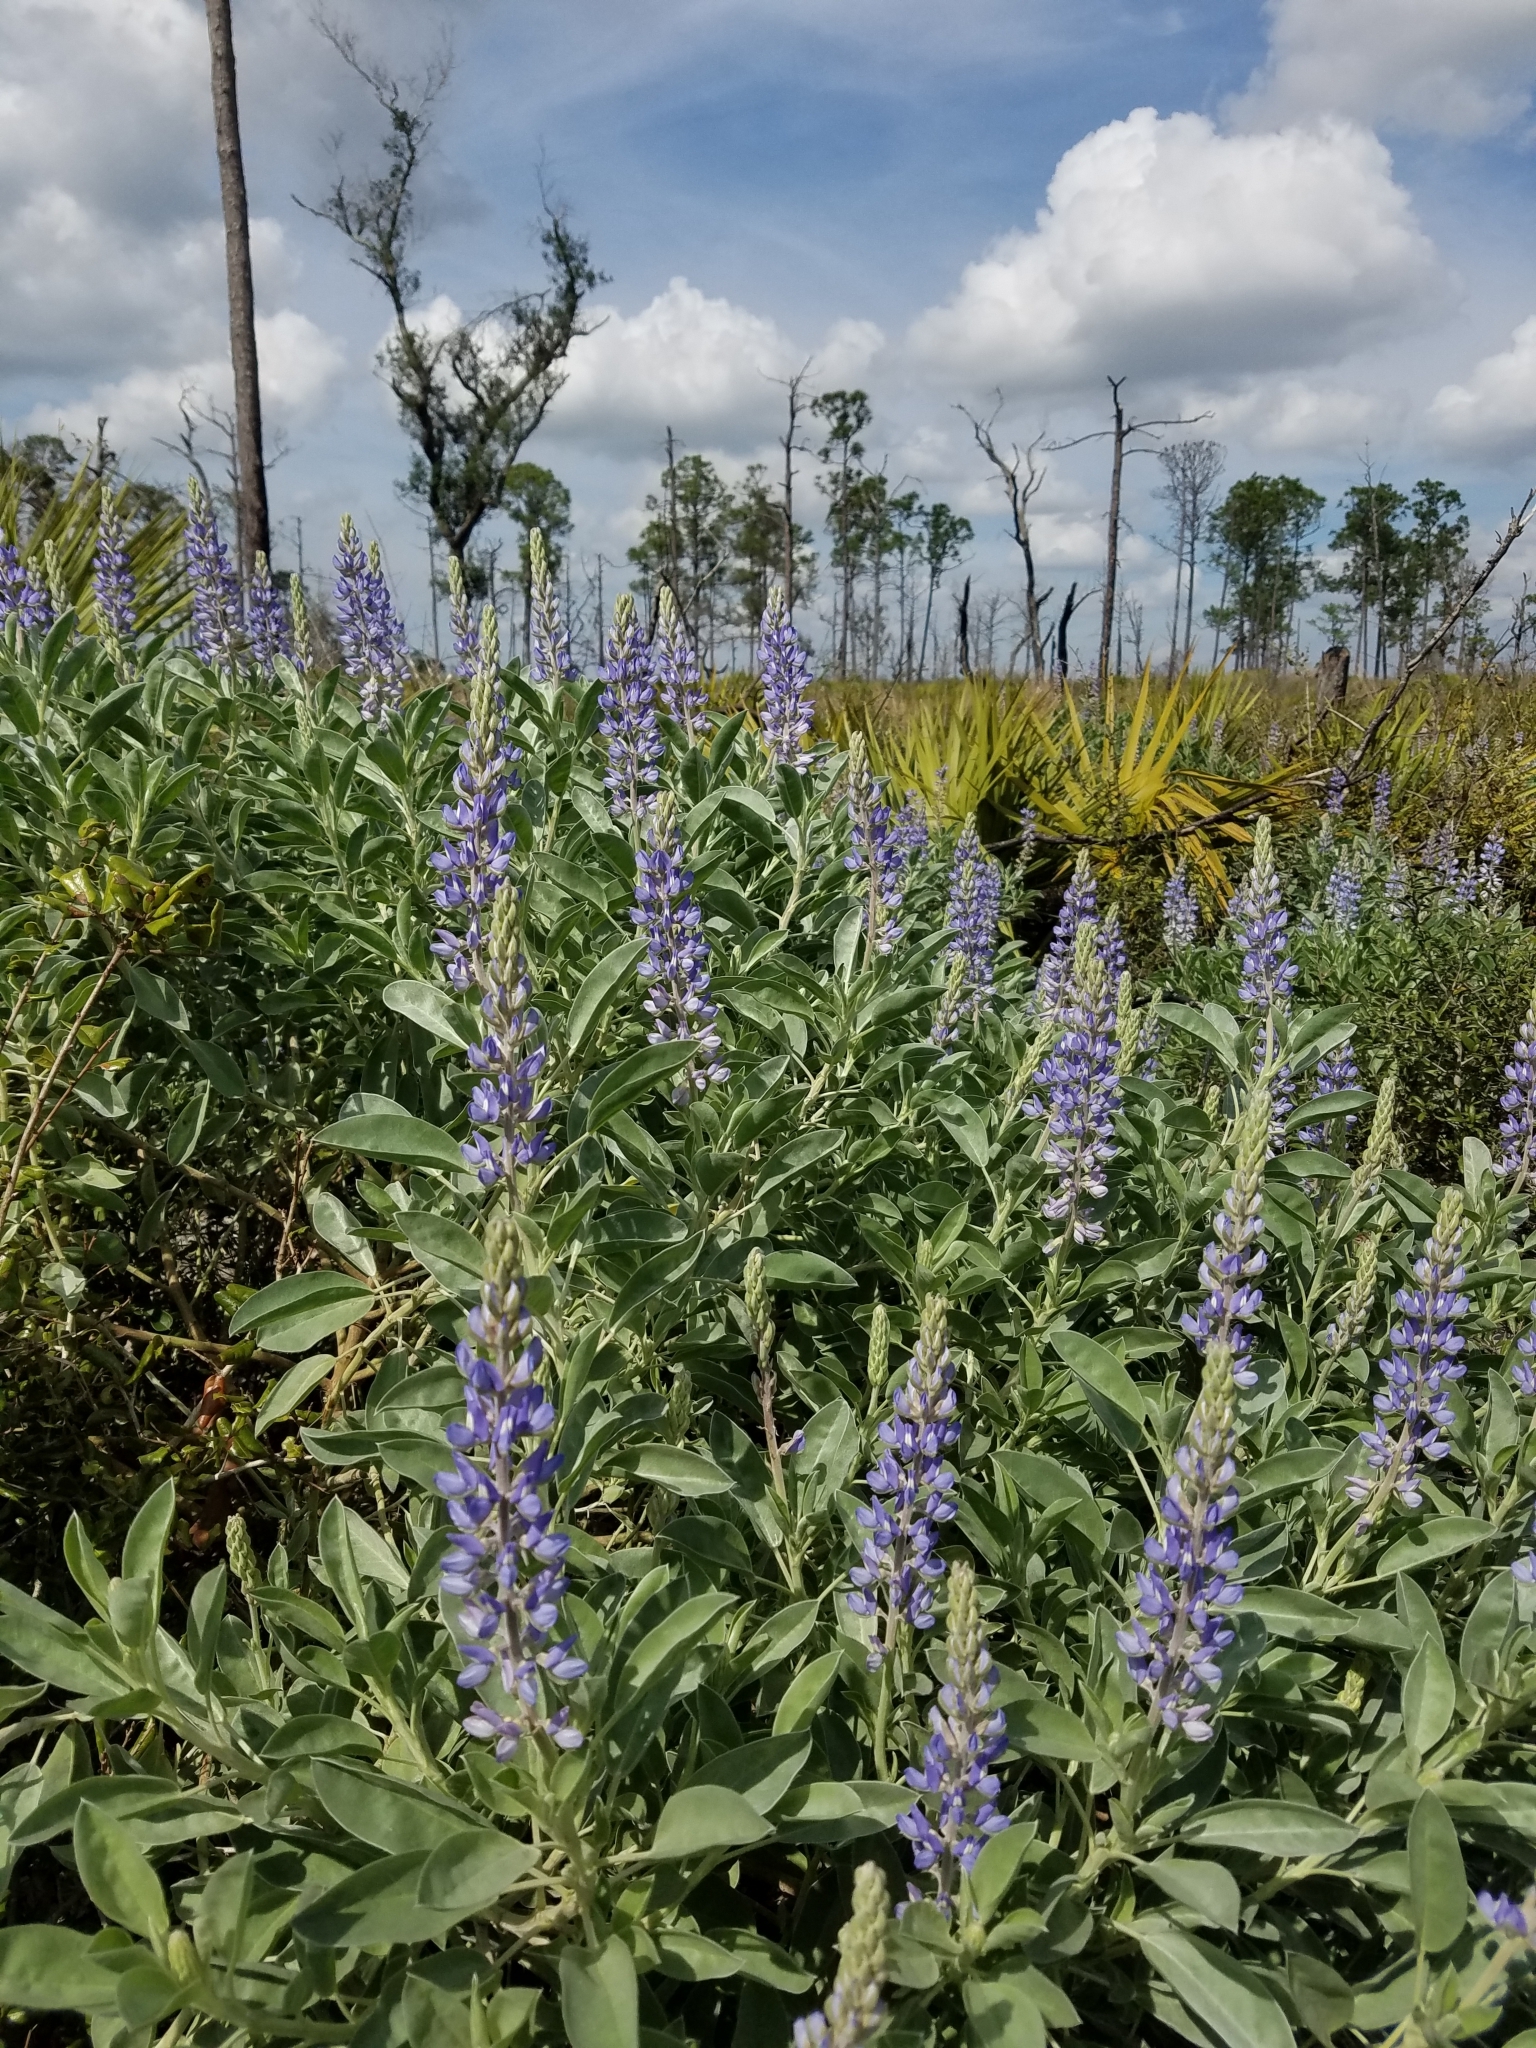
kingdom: Plantae
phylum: Tracheophyta
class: Magnoliopsida
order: Fabales
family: Fabaceae
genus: Lupinus
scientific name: Lupinus cumulicola
